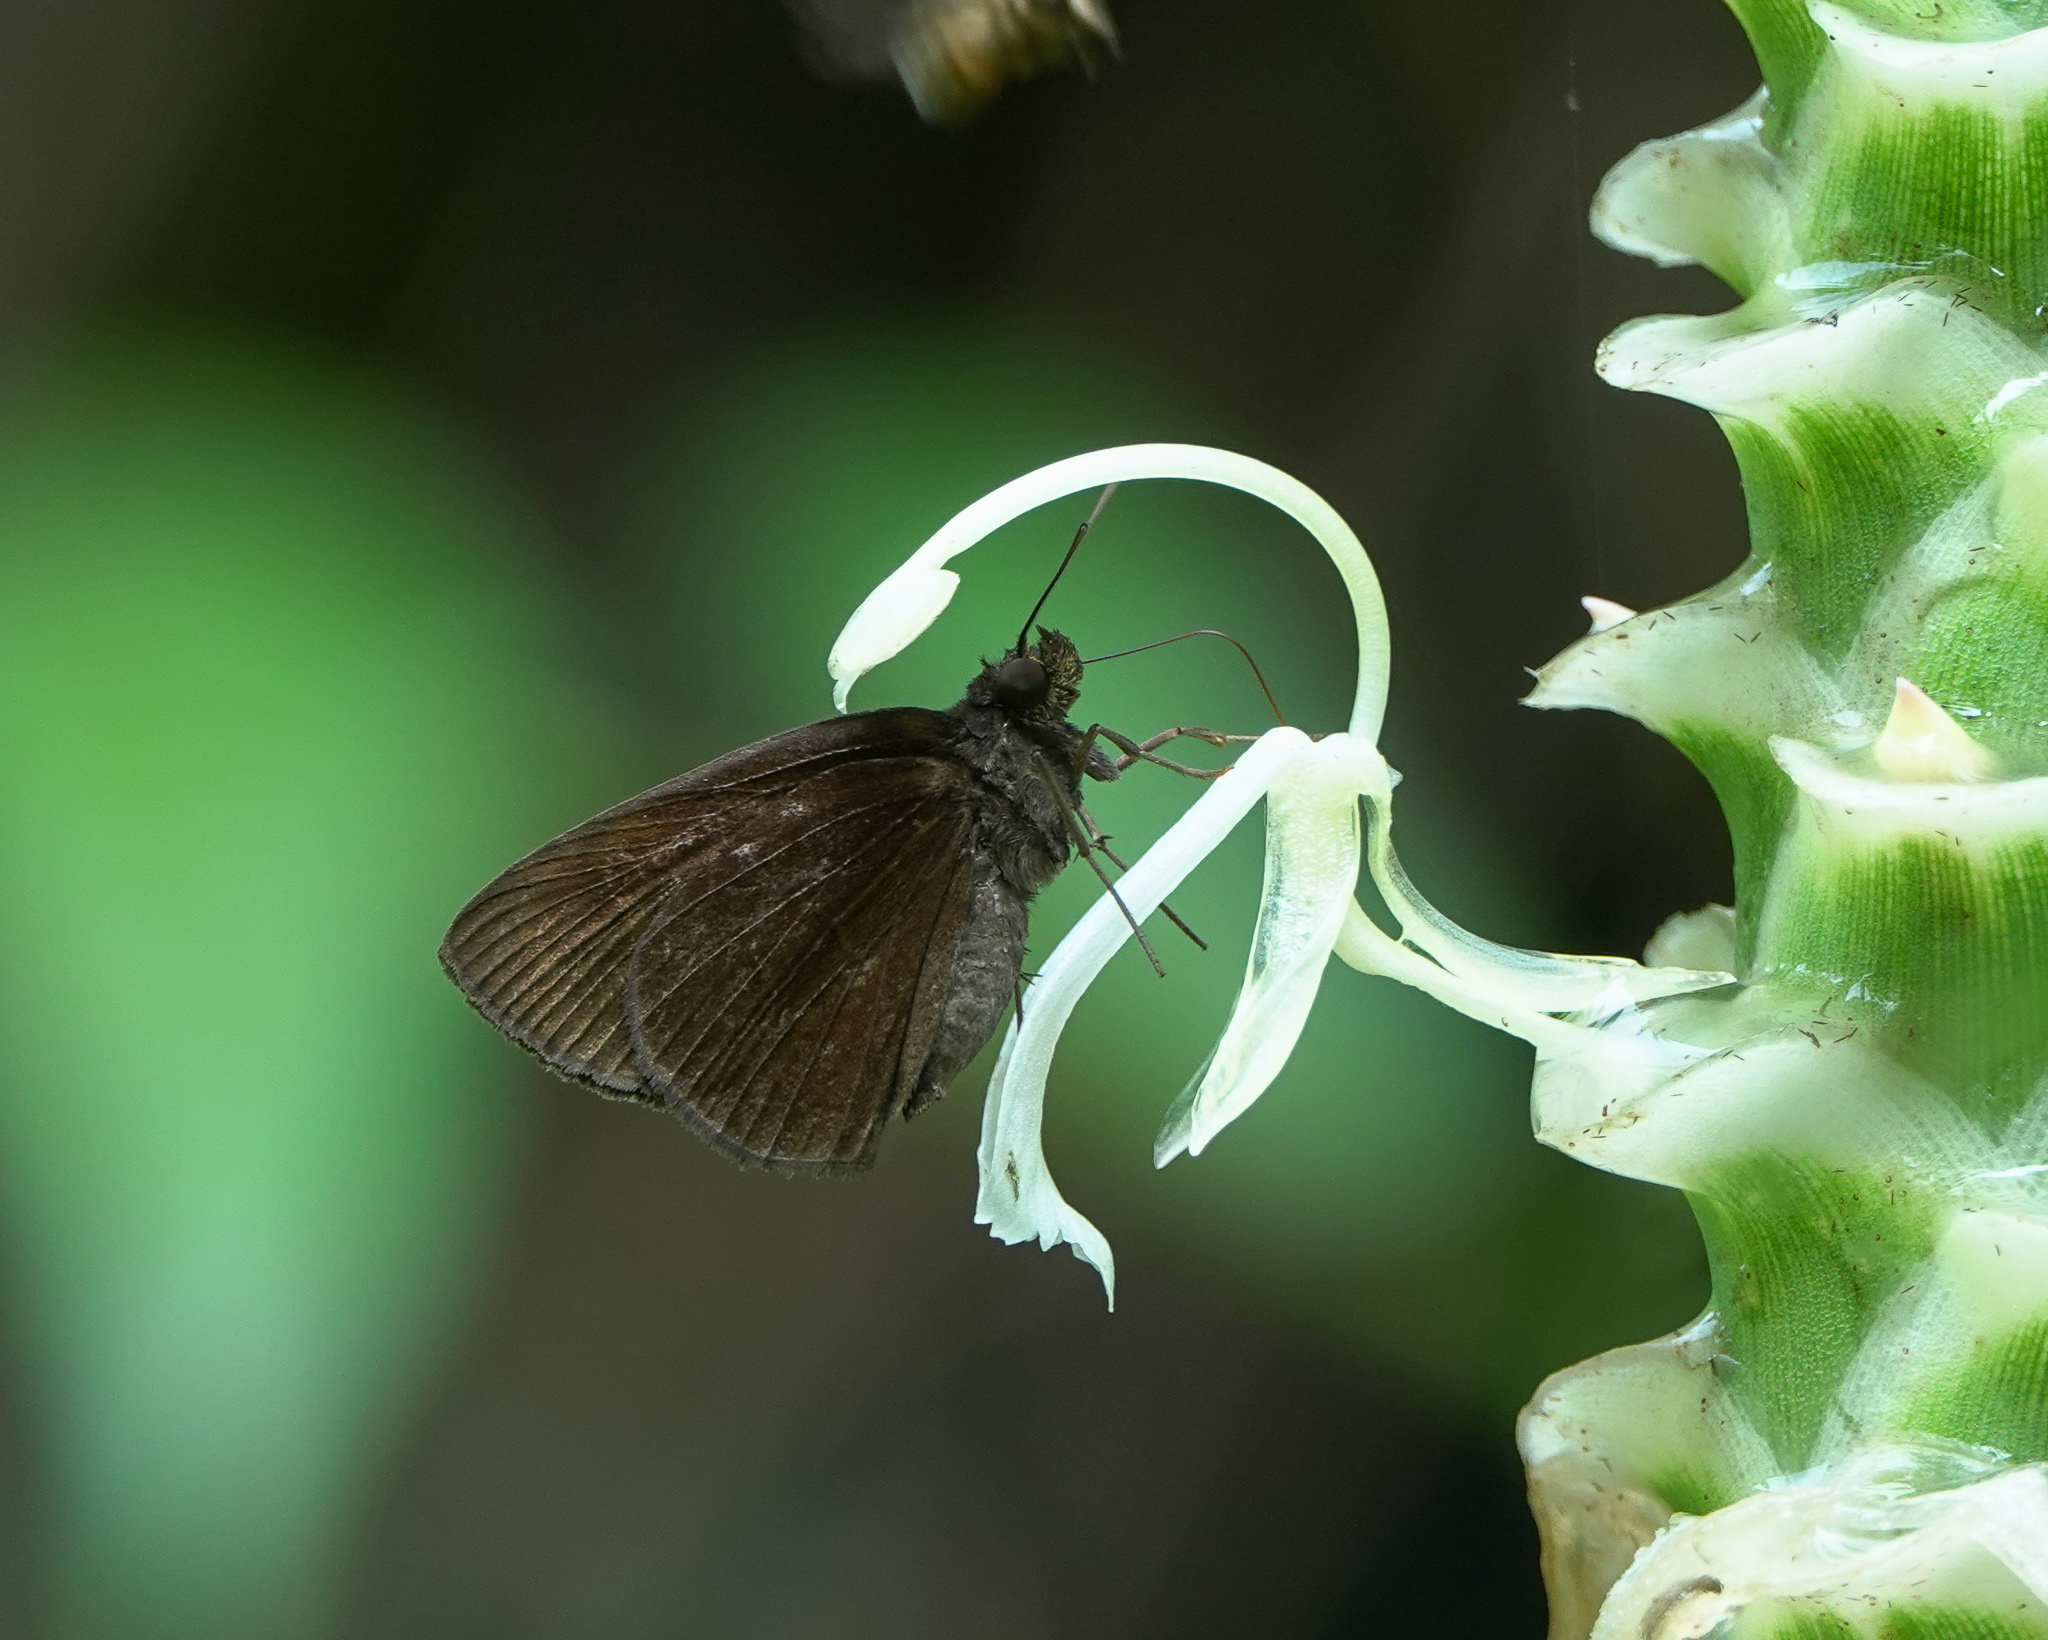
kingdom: Animalia
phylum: Arthropoda
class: Insecta
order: Lepidoptera
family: Hesperiidae
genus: Ancistroides
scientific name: Ancistroides nigrita
